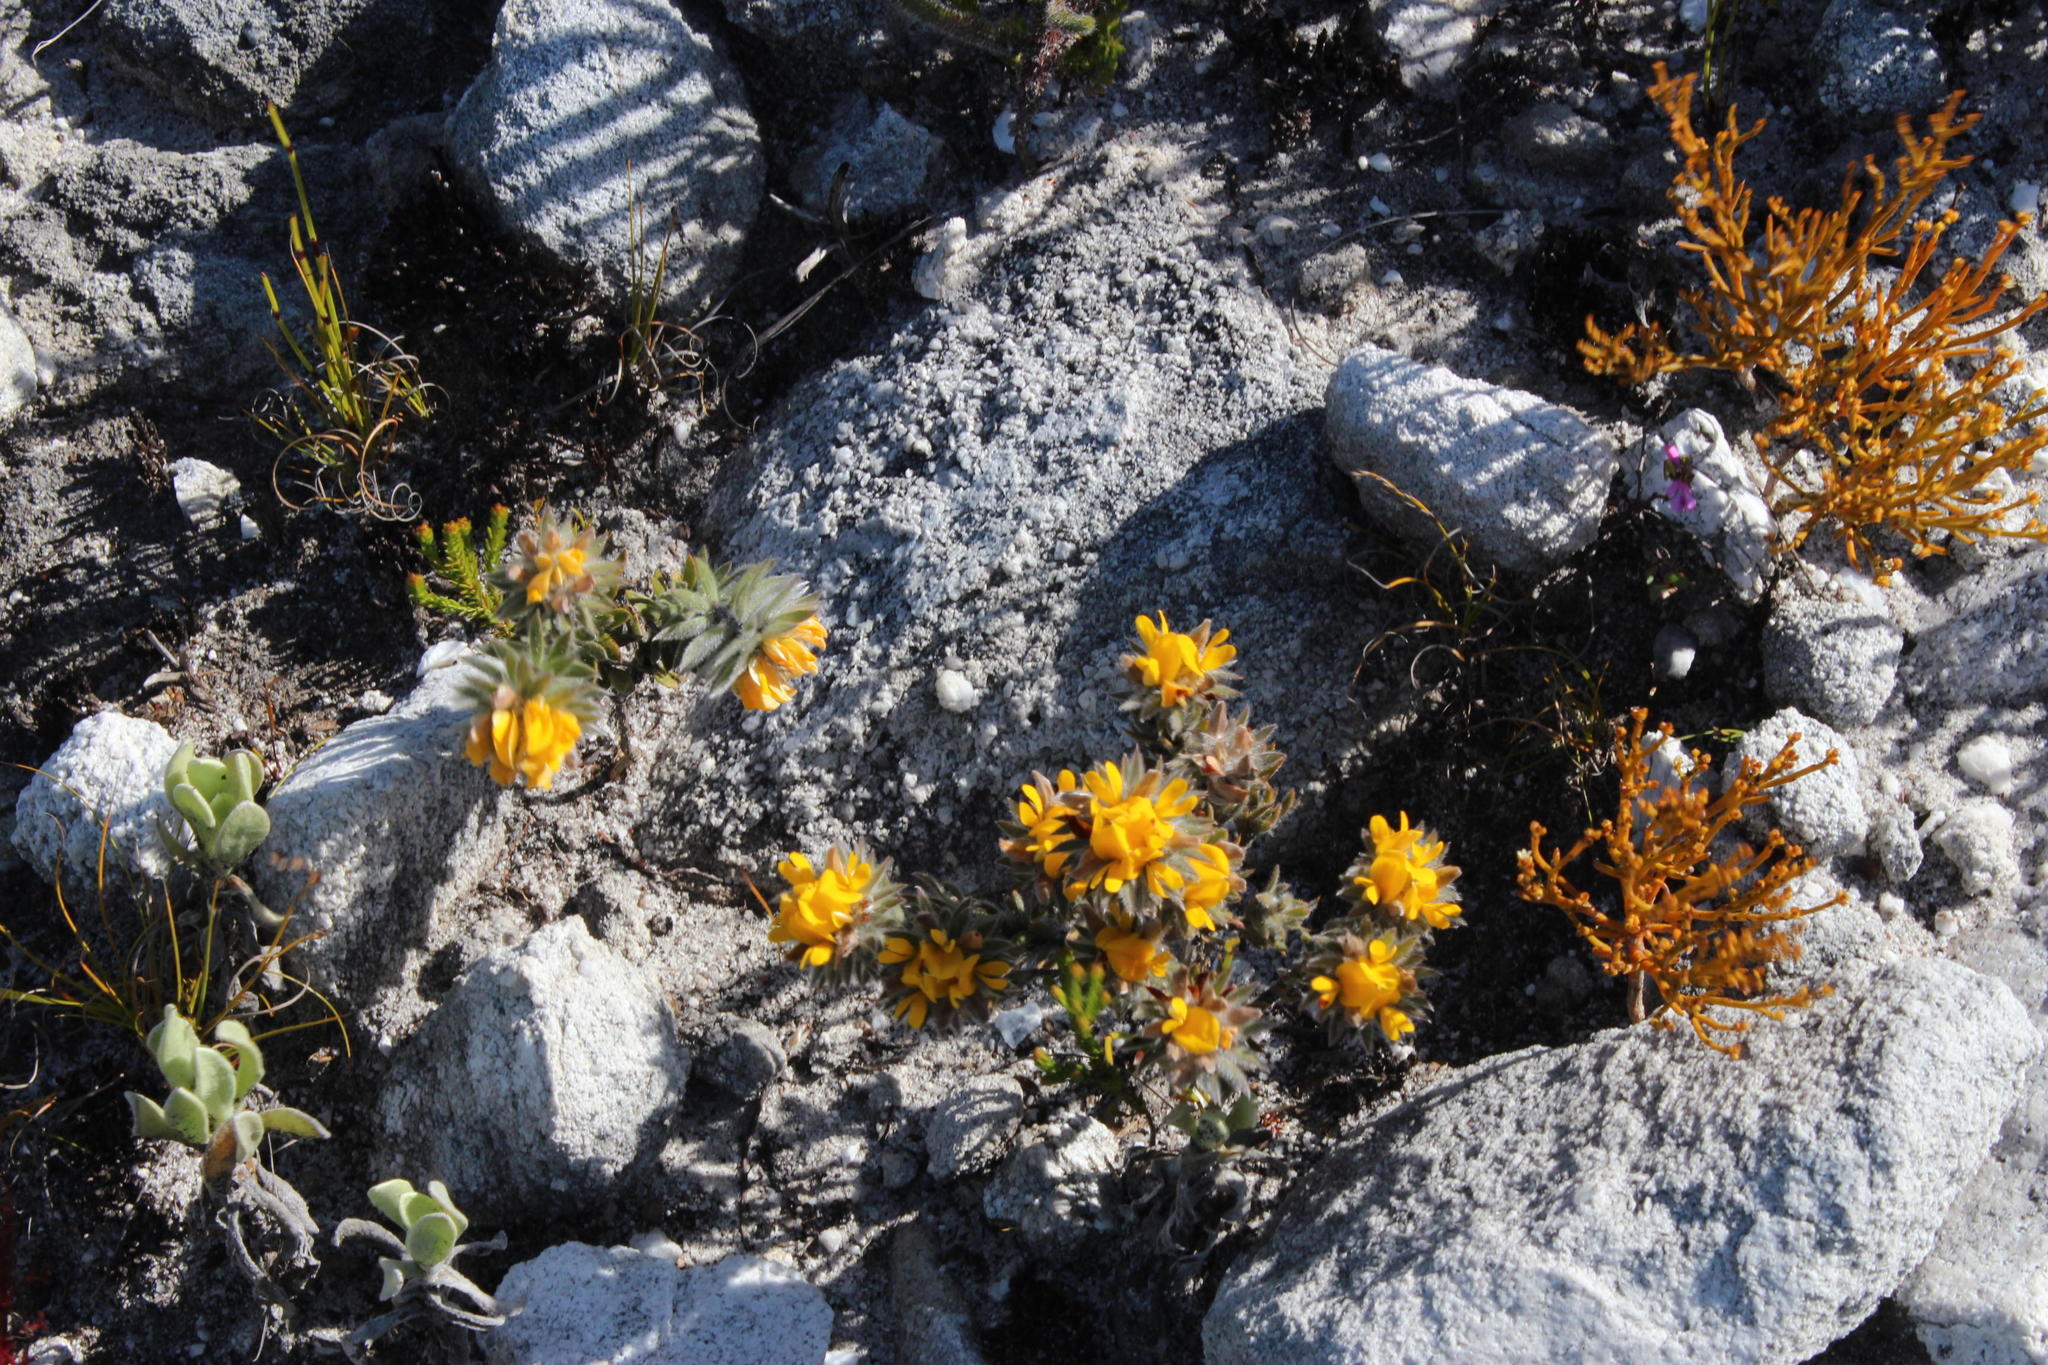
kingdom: Plantae
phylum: Tracheophyta
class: Magnoliopsida
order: Fabales
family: Fabaceae
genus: Aspalathus
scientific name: Aspalathus aspalathoides
